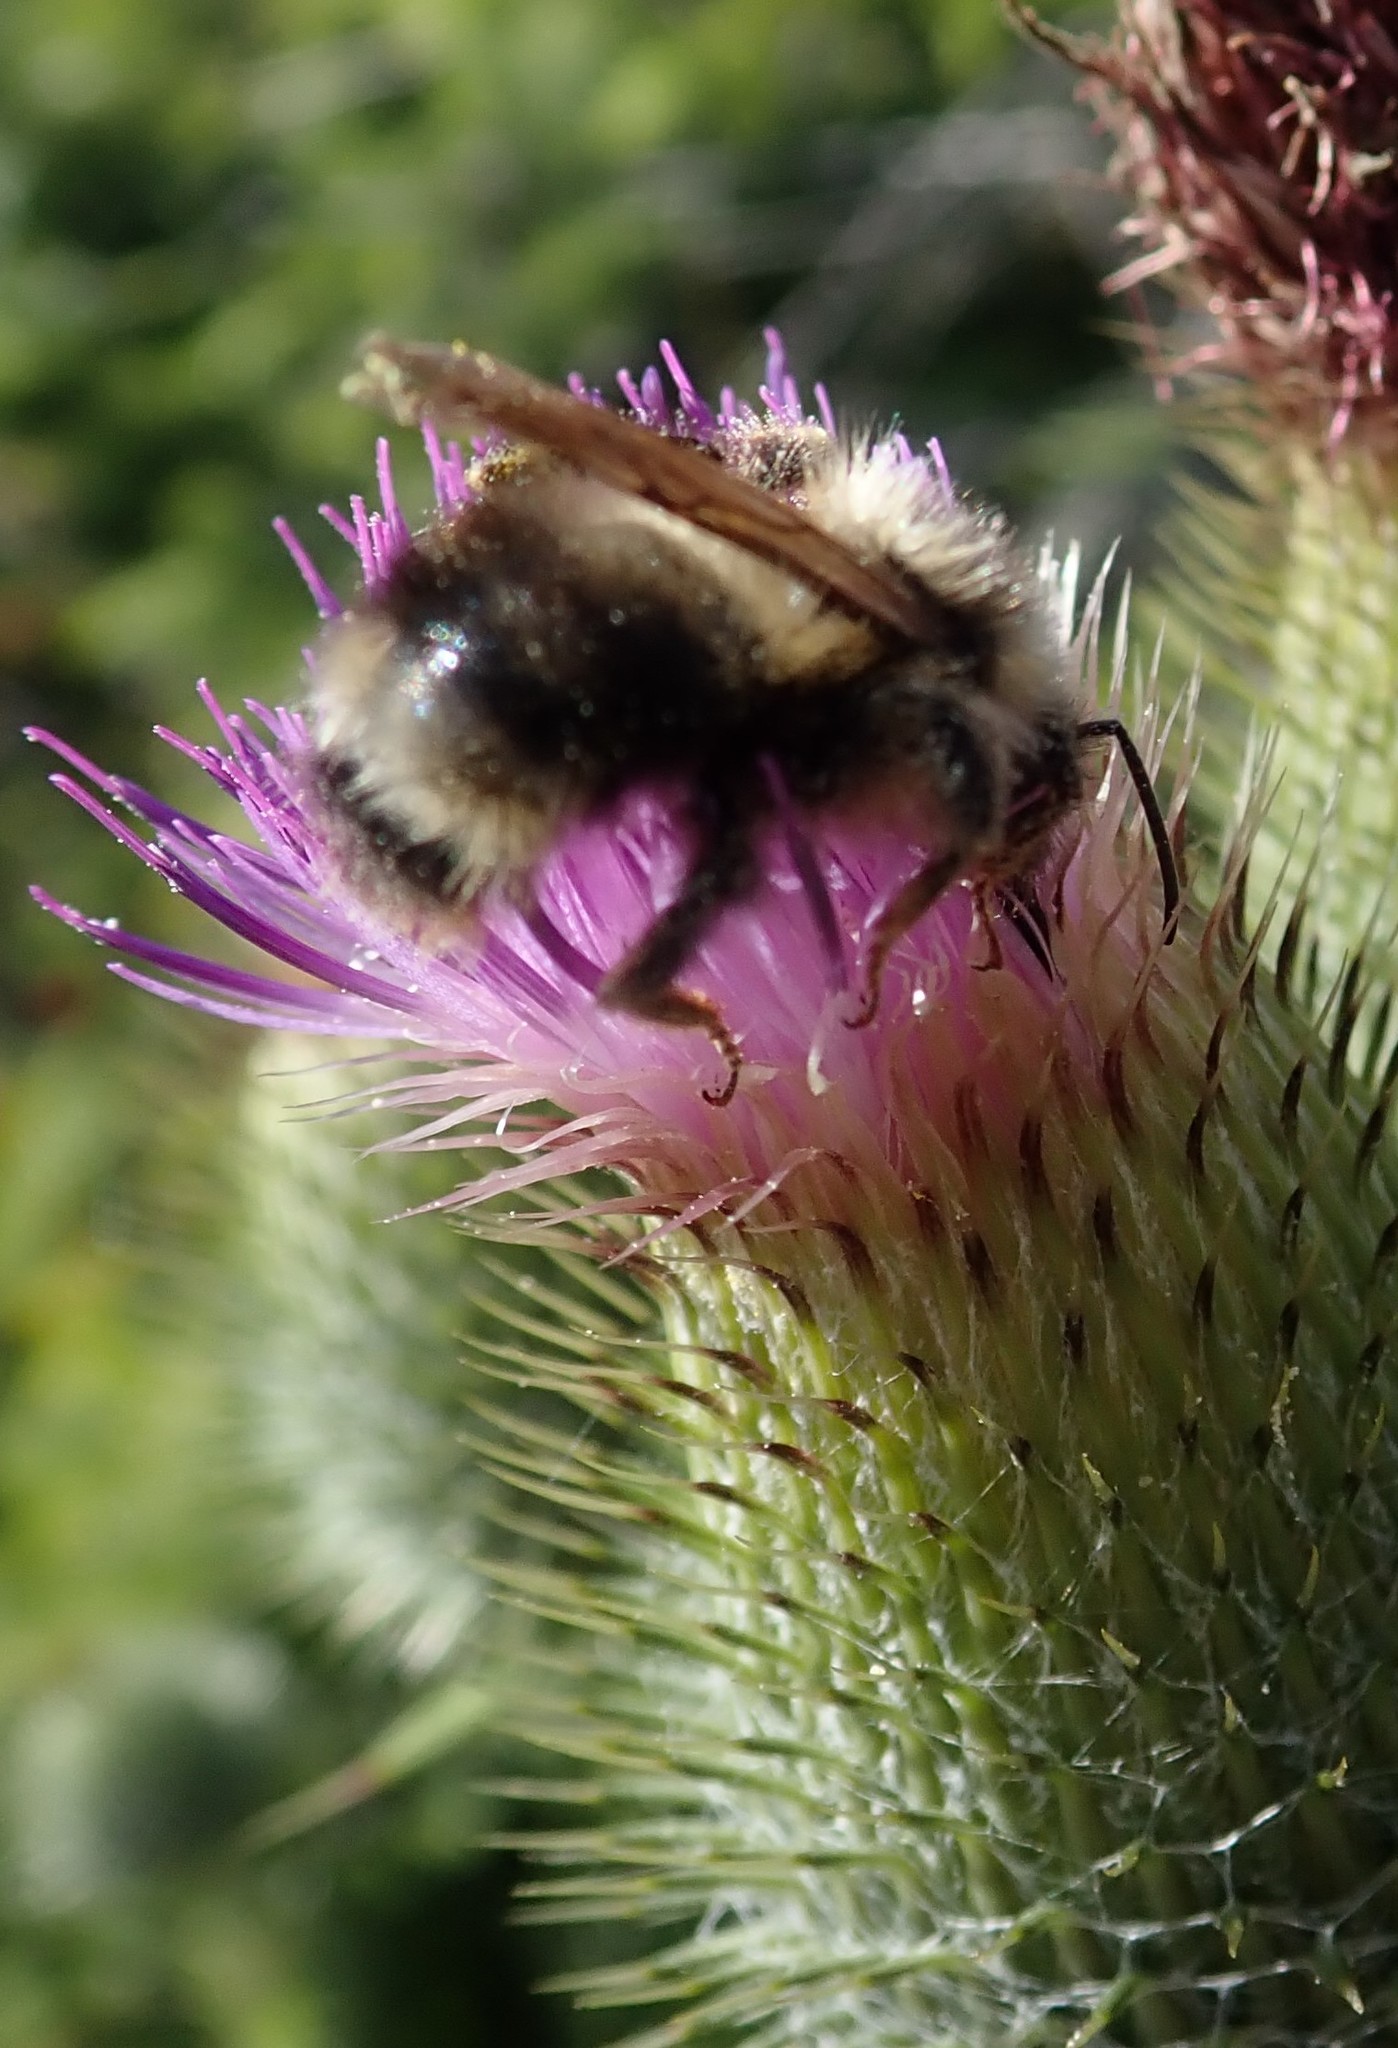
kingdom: Animalia
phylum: Arthropoda
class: Insecta
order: Hymenoptera
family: Apidae
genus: Bombus
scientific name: Bombus flavidus
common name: Fernald cuckoo bumble bee
